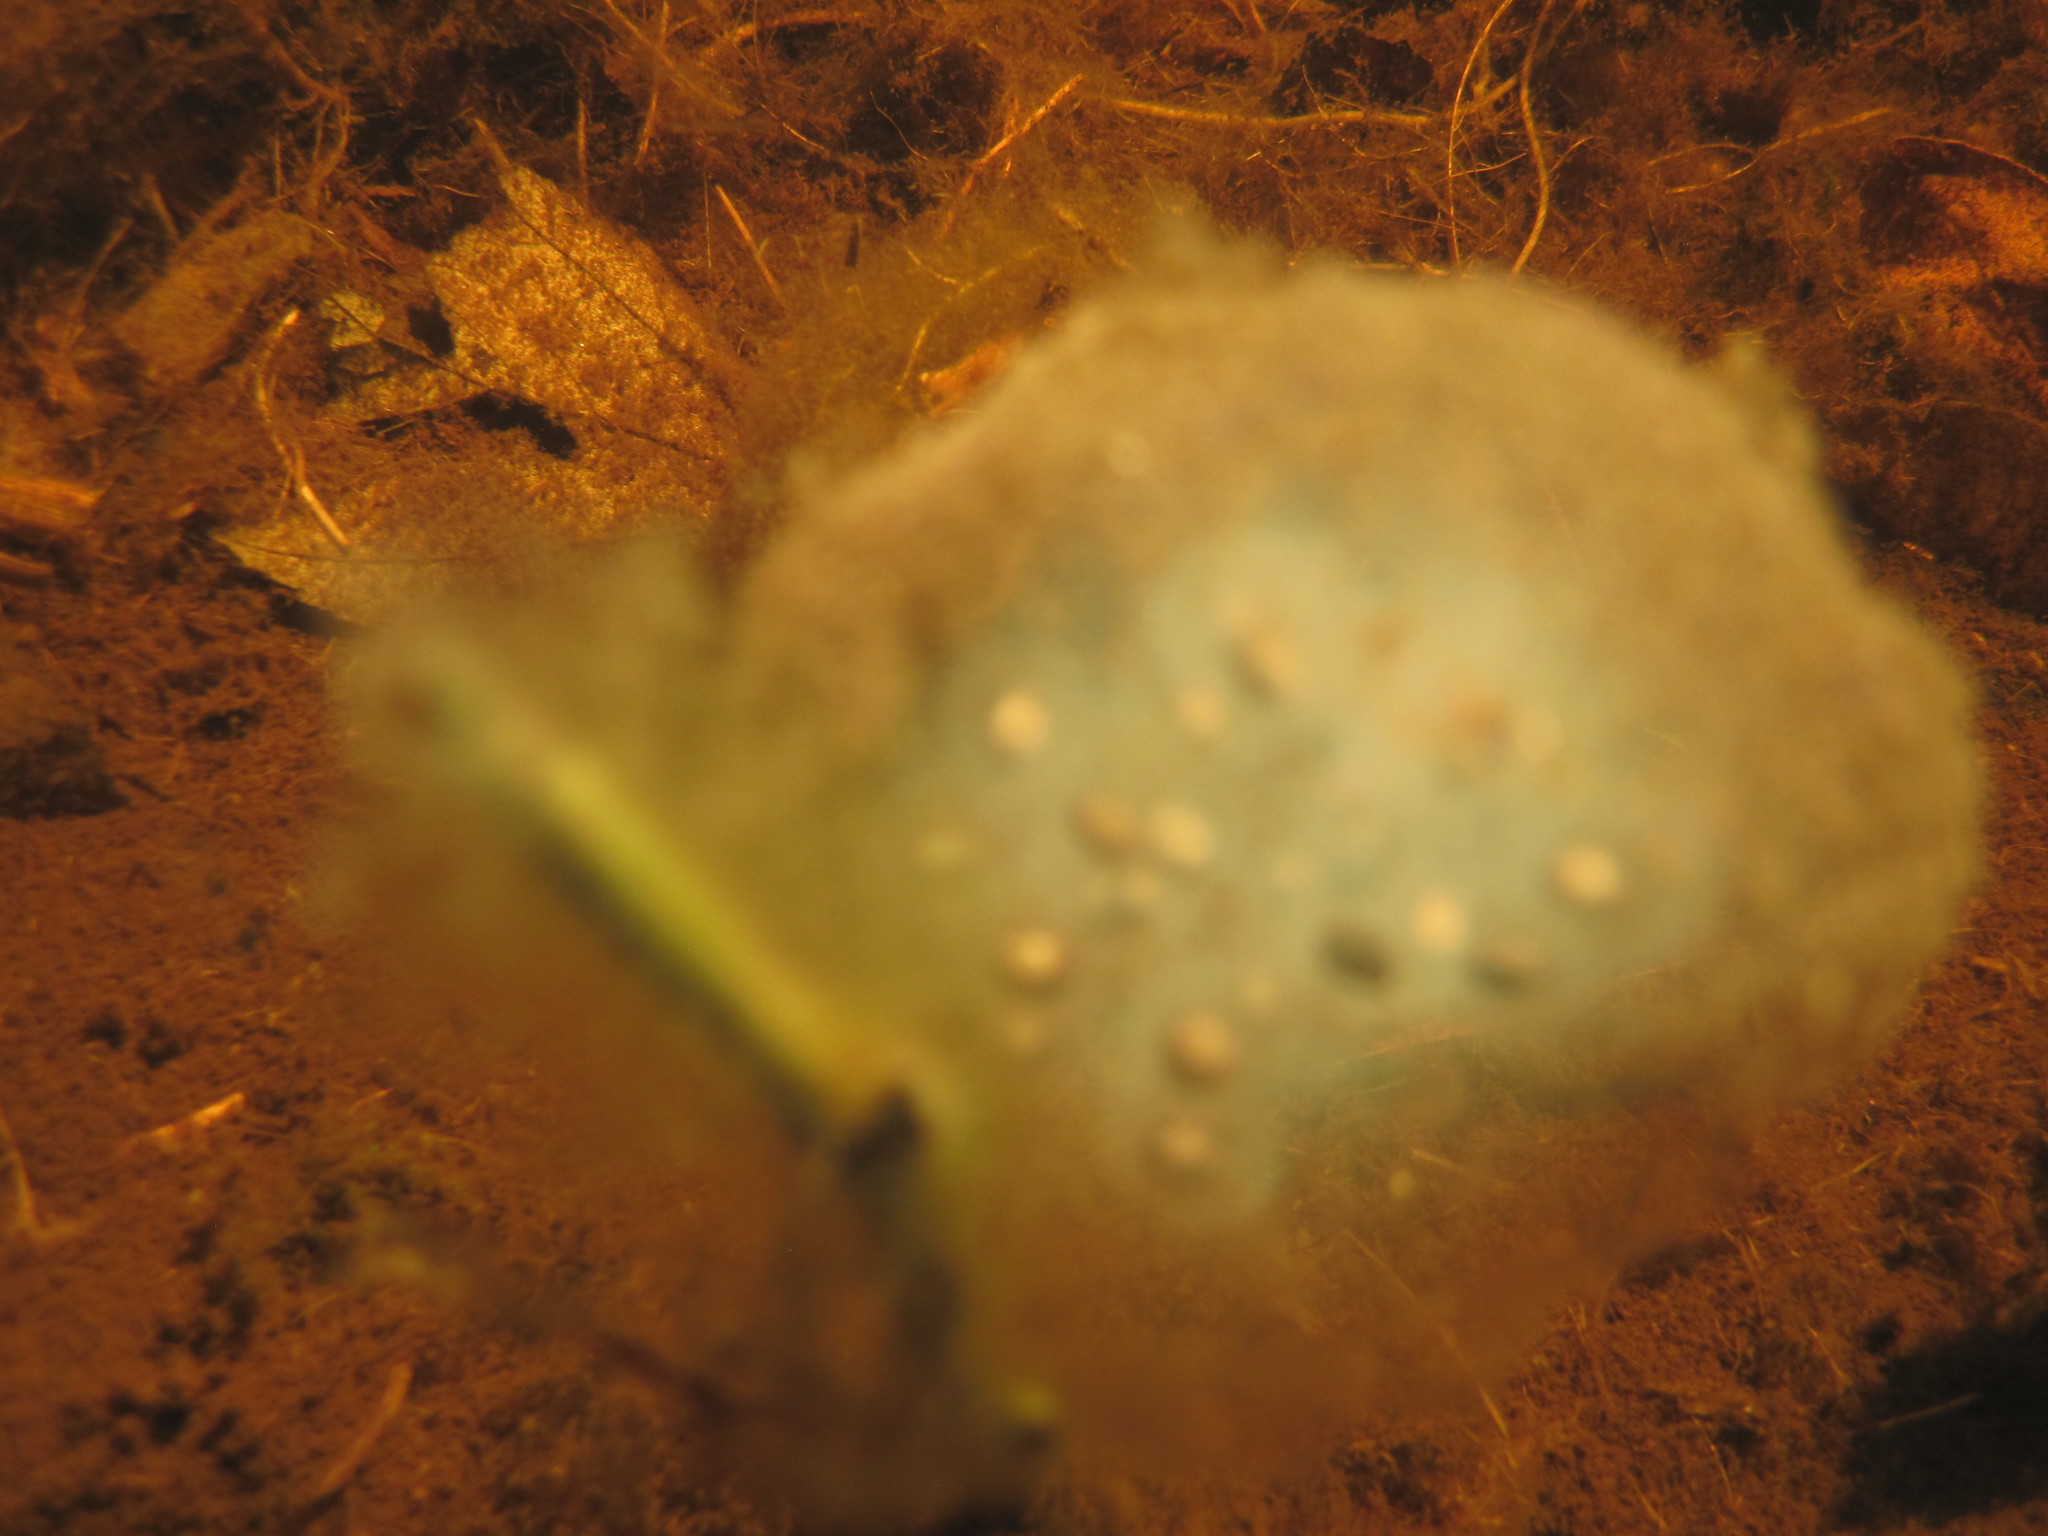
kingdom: Animalia
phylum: Chordata
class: Amphibia
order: Caudata
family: Ambystomatidae
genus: Ambystoma
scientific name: Ambystoma maculatum
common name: Spotted salamander
